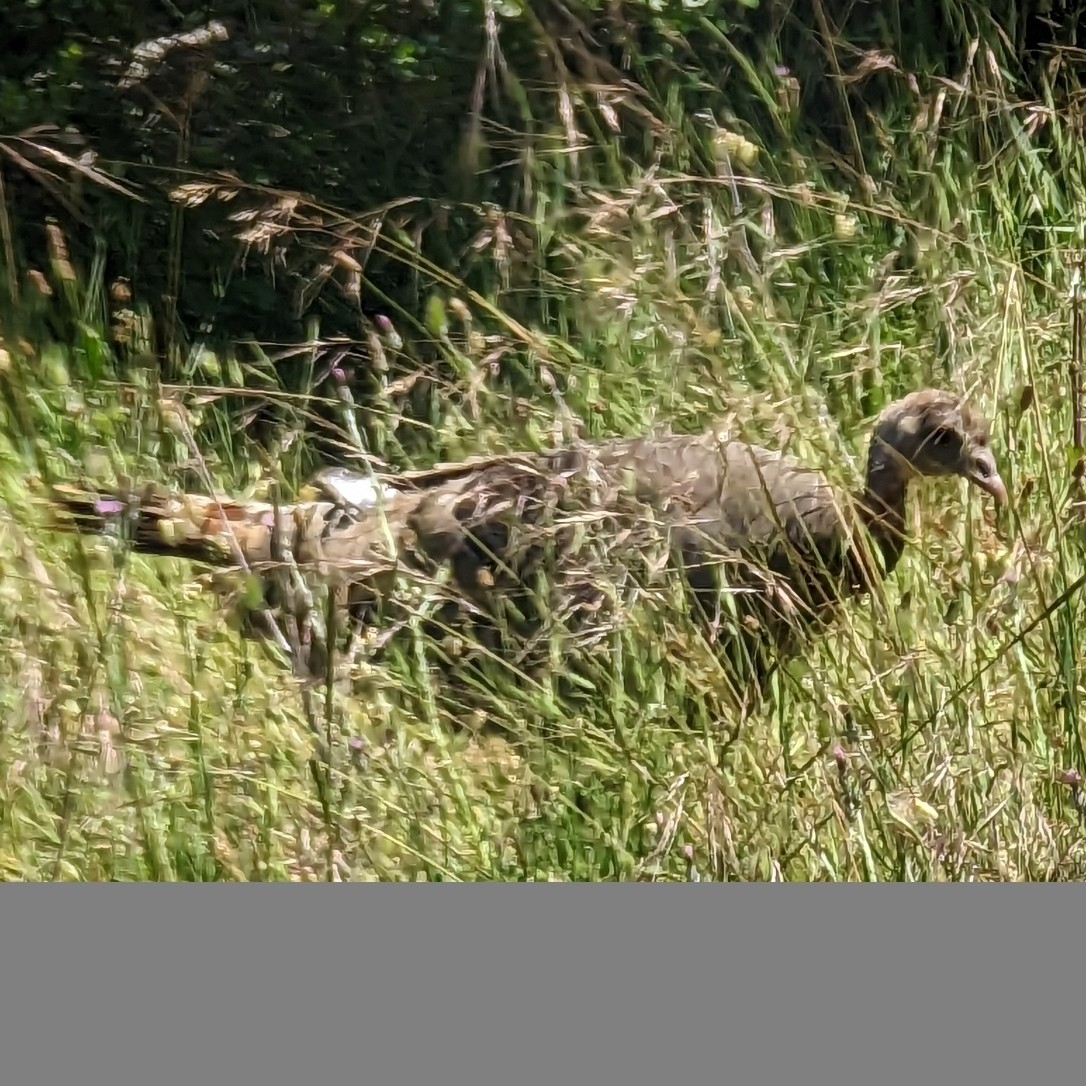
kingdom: Animalia
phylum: Chordata
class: Aves
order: Galliformes
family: Phasianidae
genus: Meleagris
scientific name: Meleagris gallopavo
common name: Wild turkey
